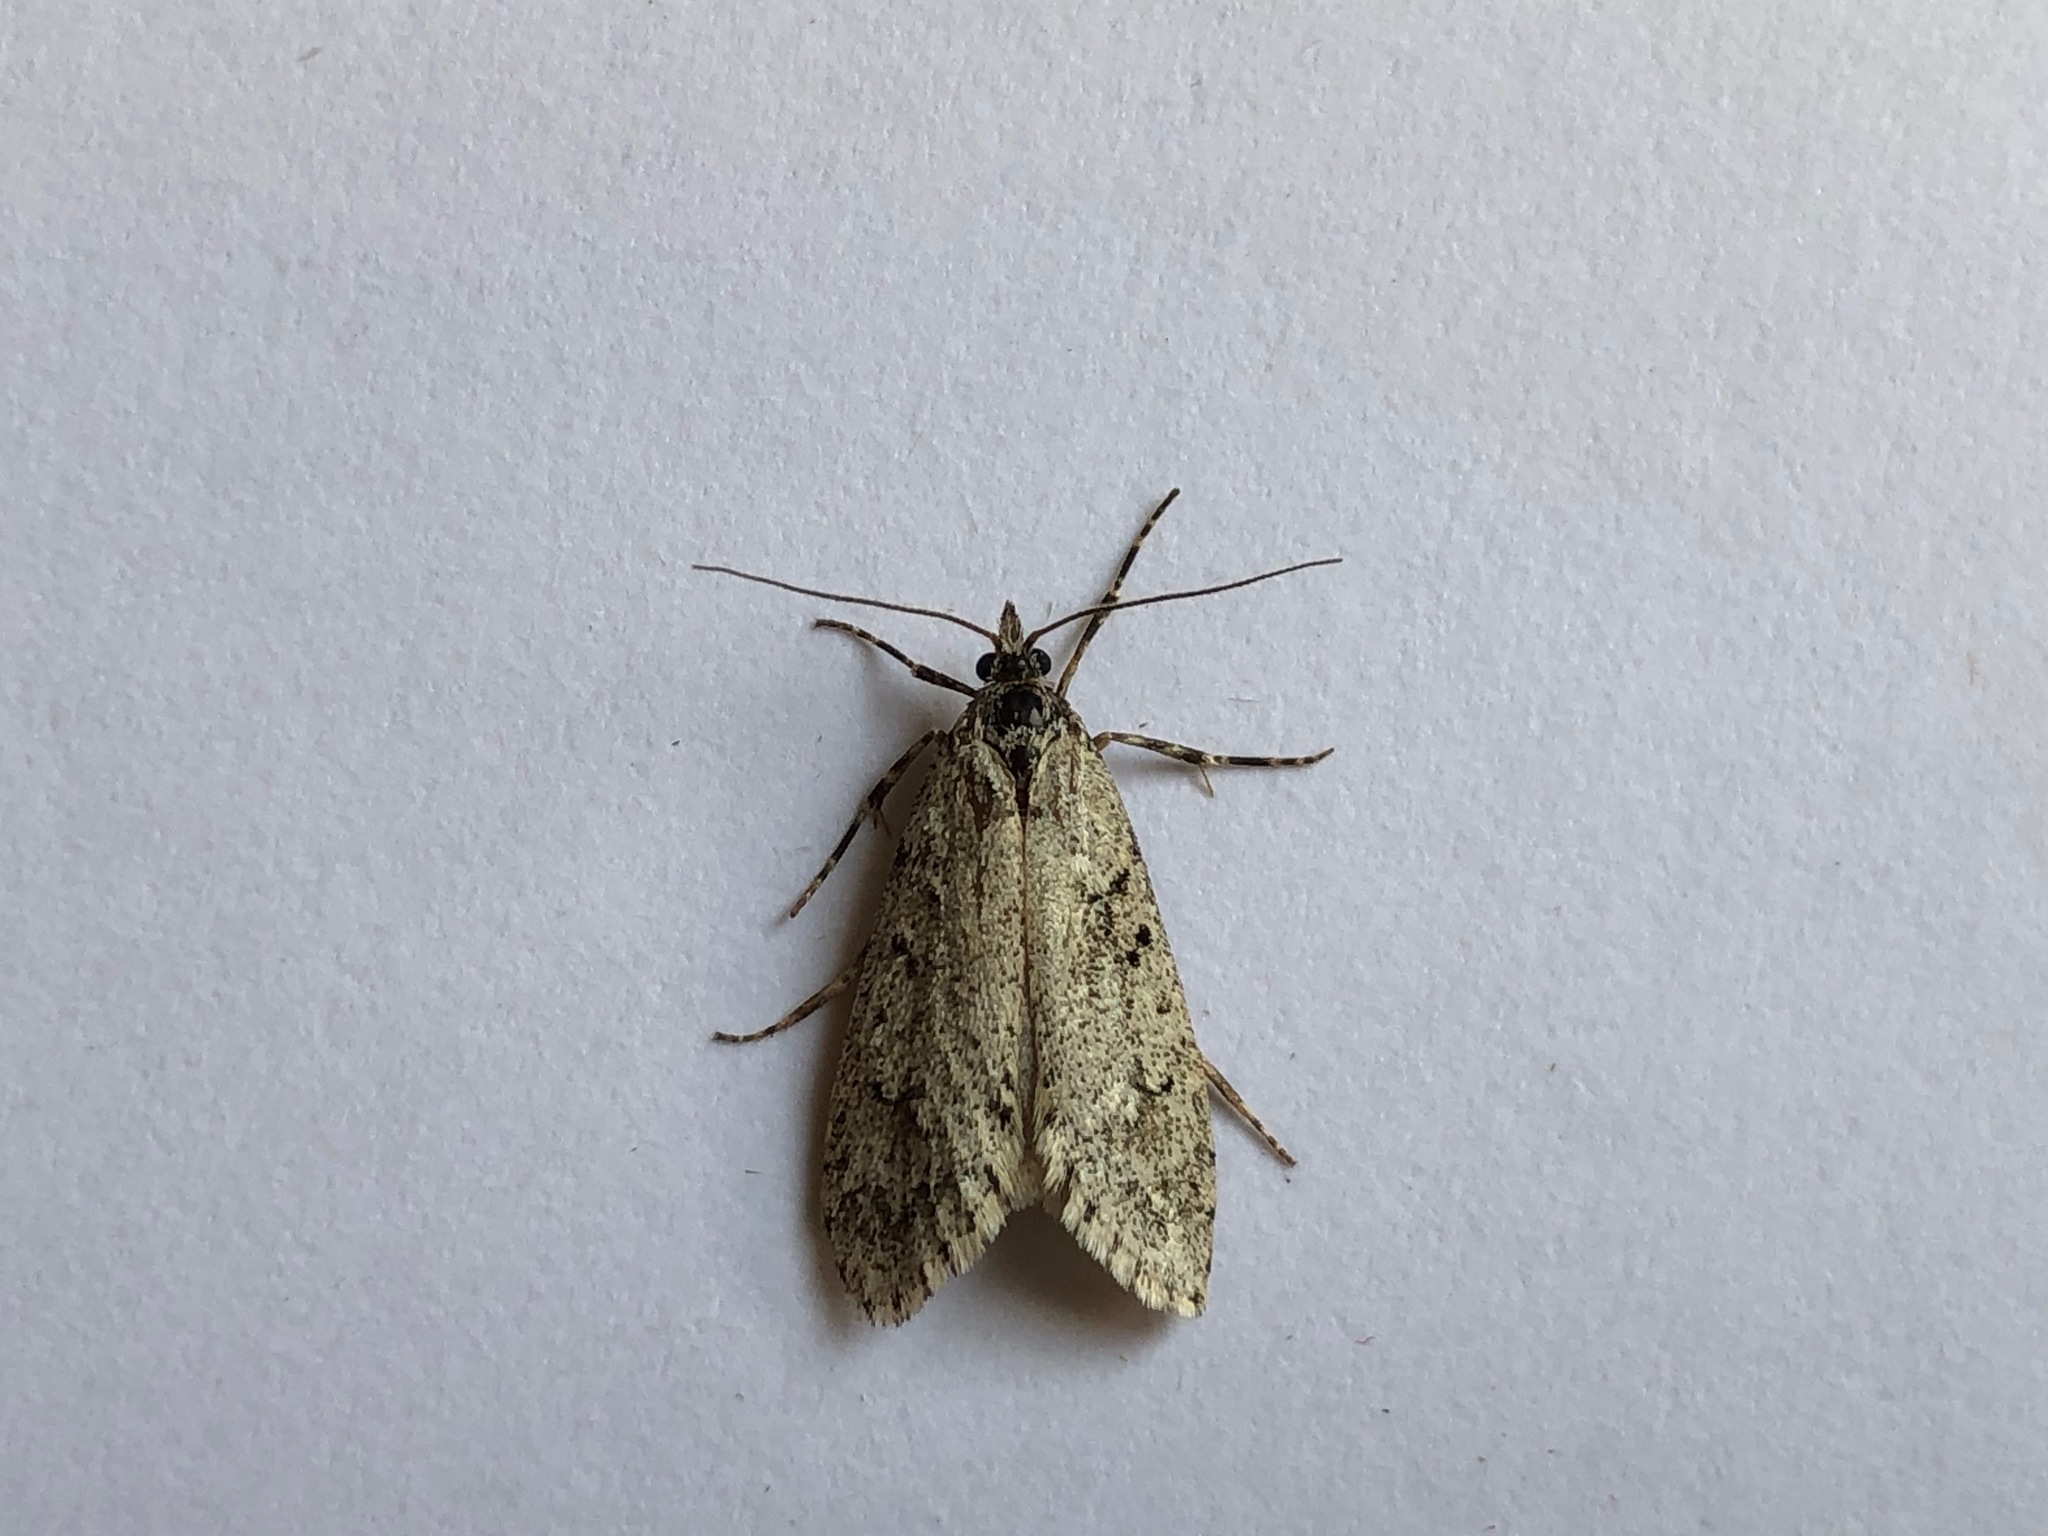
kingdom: Animalia
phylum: Arthropoda
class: Insecta
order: Lepidoptera
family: Lypusidae
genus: Diurnea
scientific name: Diurnea fagella
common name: March tubic
